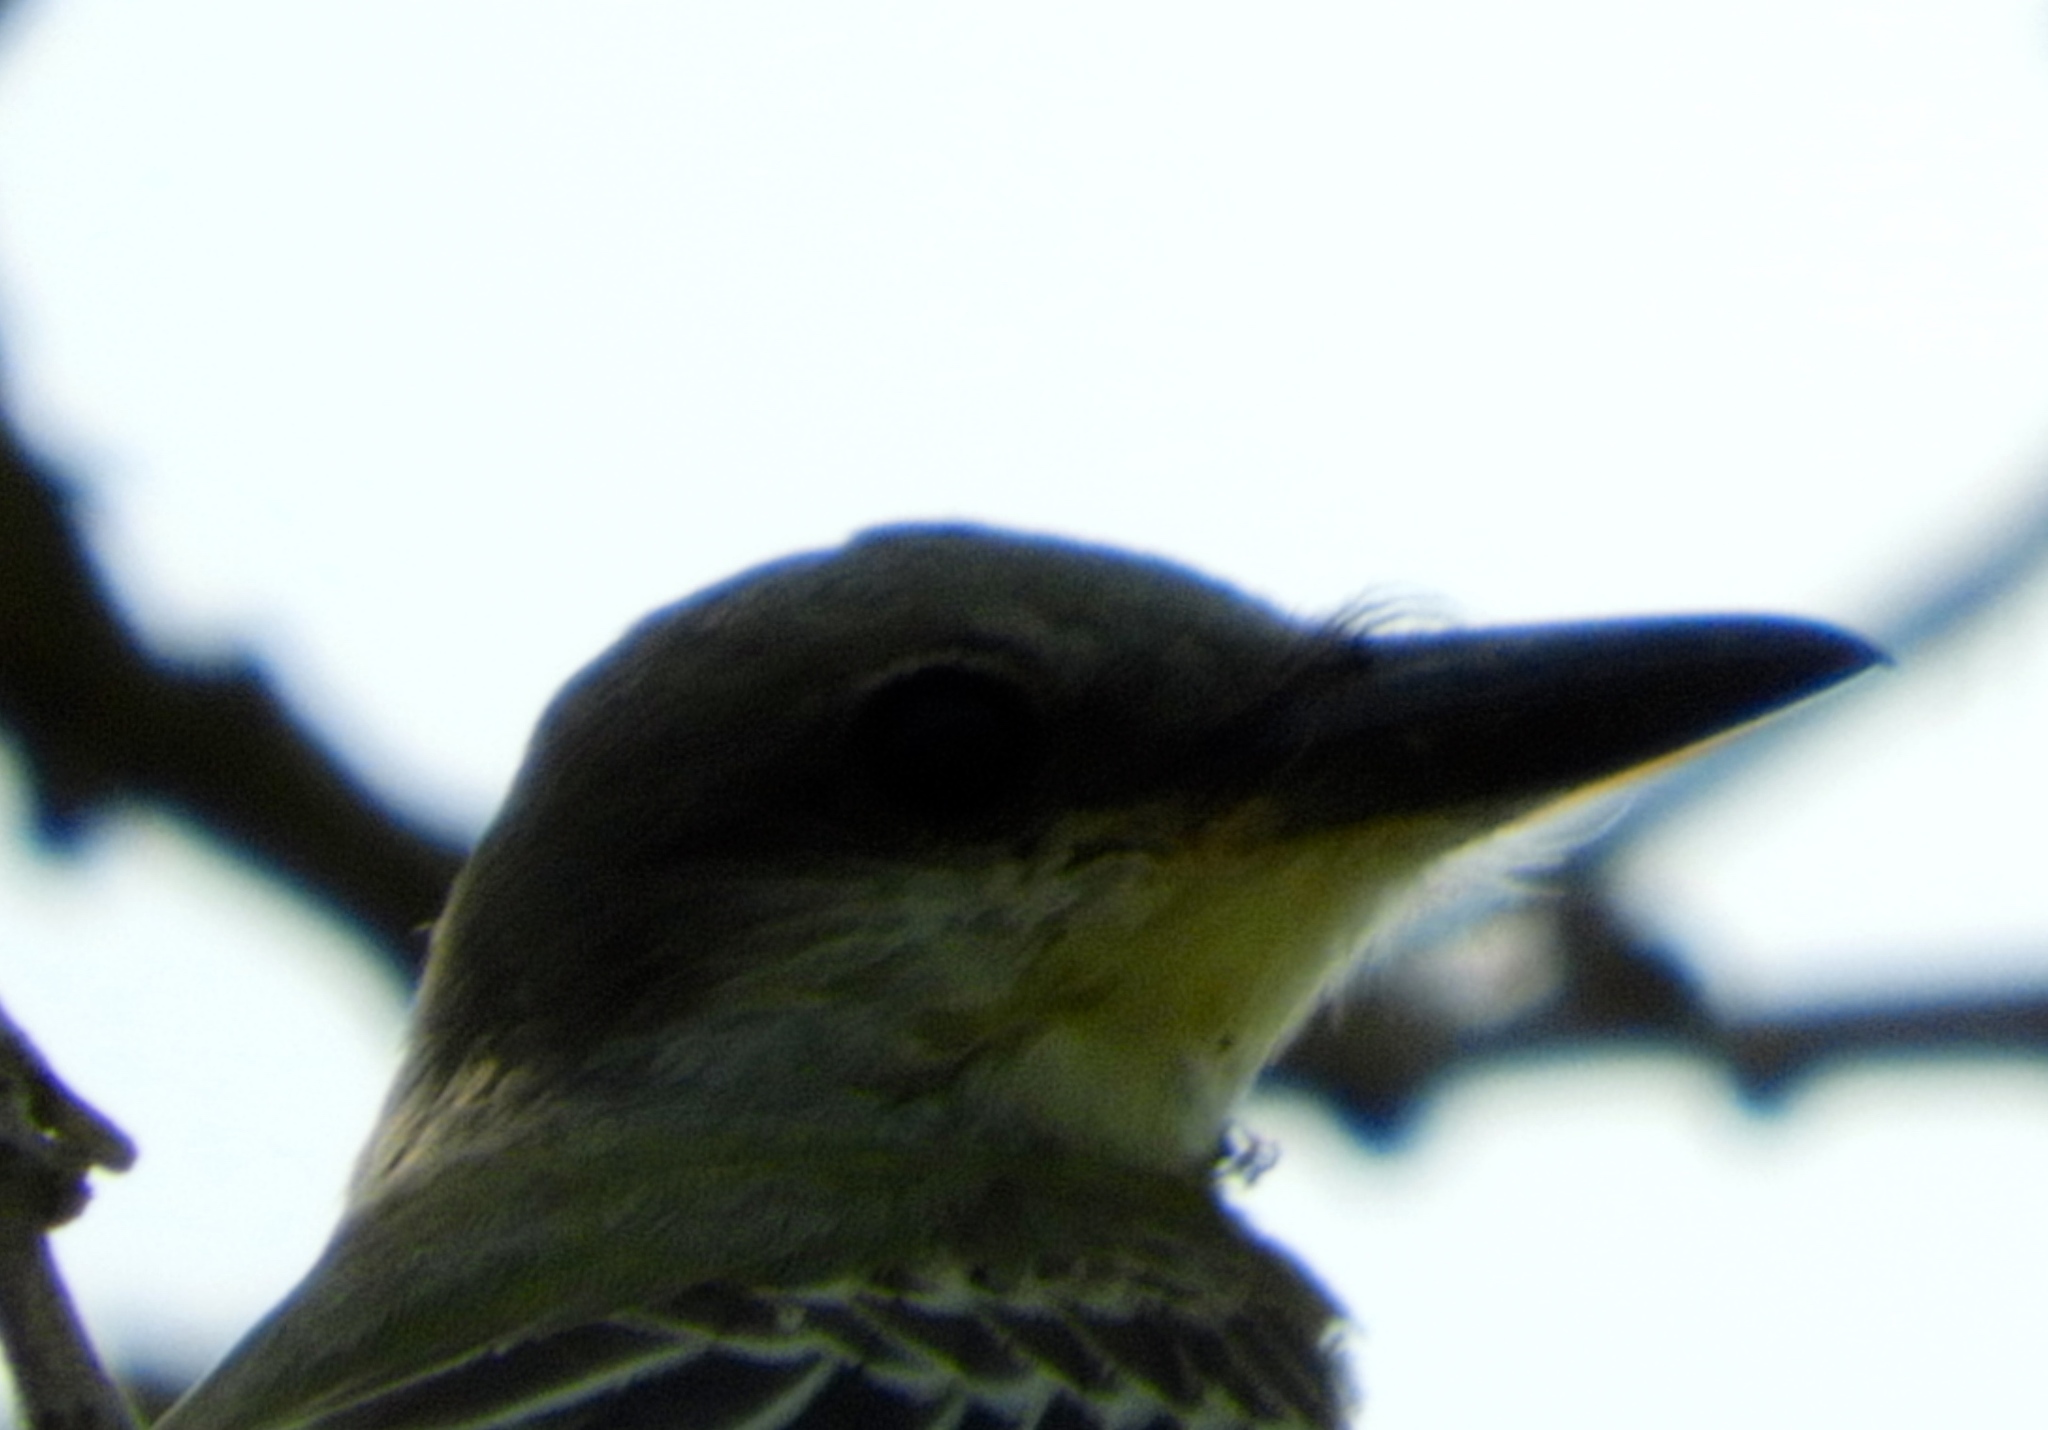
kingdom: Animalia
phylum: Chordata
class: Aves
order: Passeriformes
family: Tyrannidae
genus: Tyrannus
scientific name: Tyrannus melancholicus
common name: Tropical kingbird
